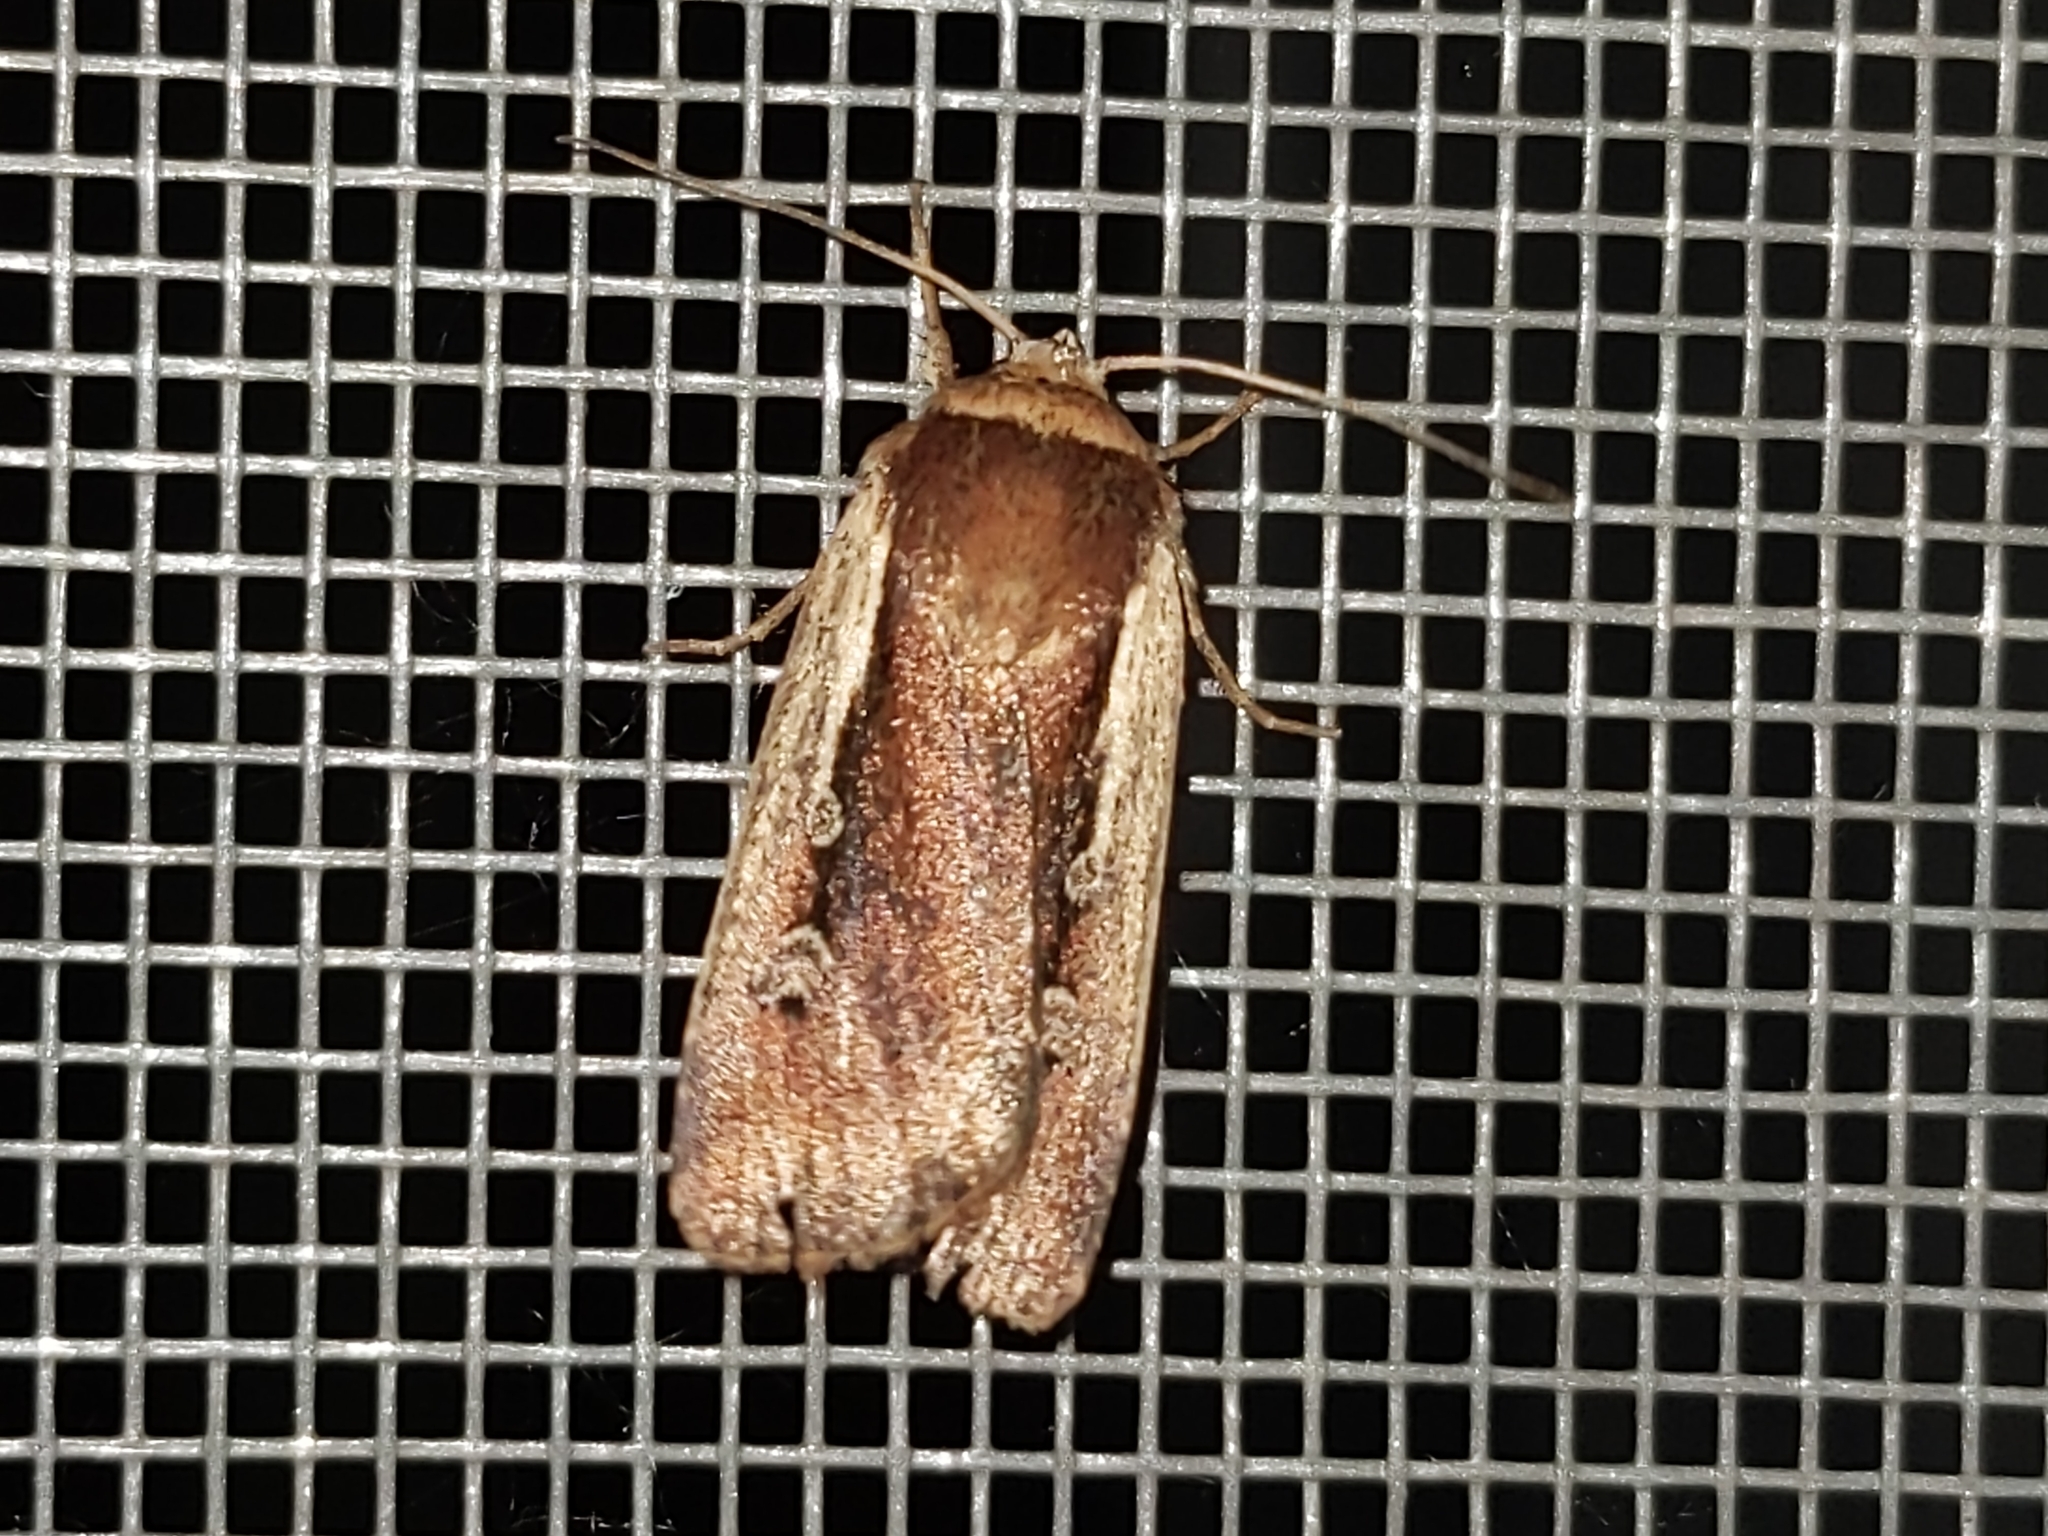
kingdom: Animalia
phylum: Arthropoda
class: Insecta
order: Lepidoptera
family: Noctuidae
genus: Ochropleura
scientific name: Ochropleura plecta
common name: Flame shoulder
